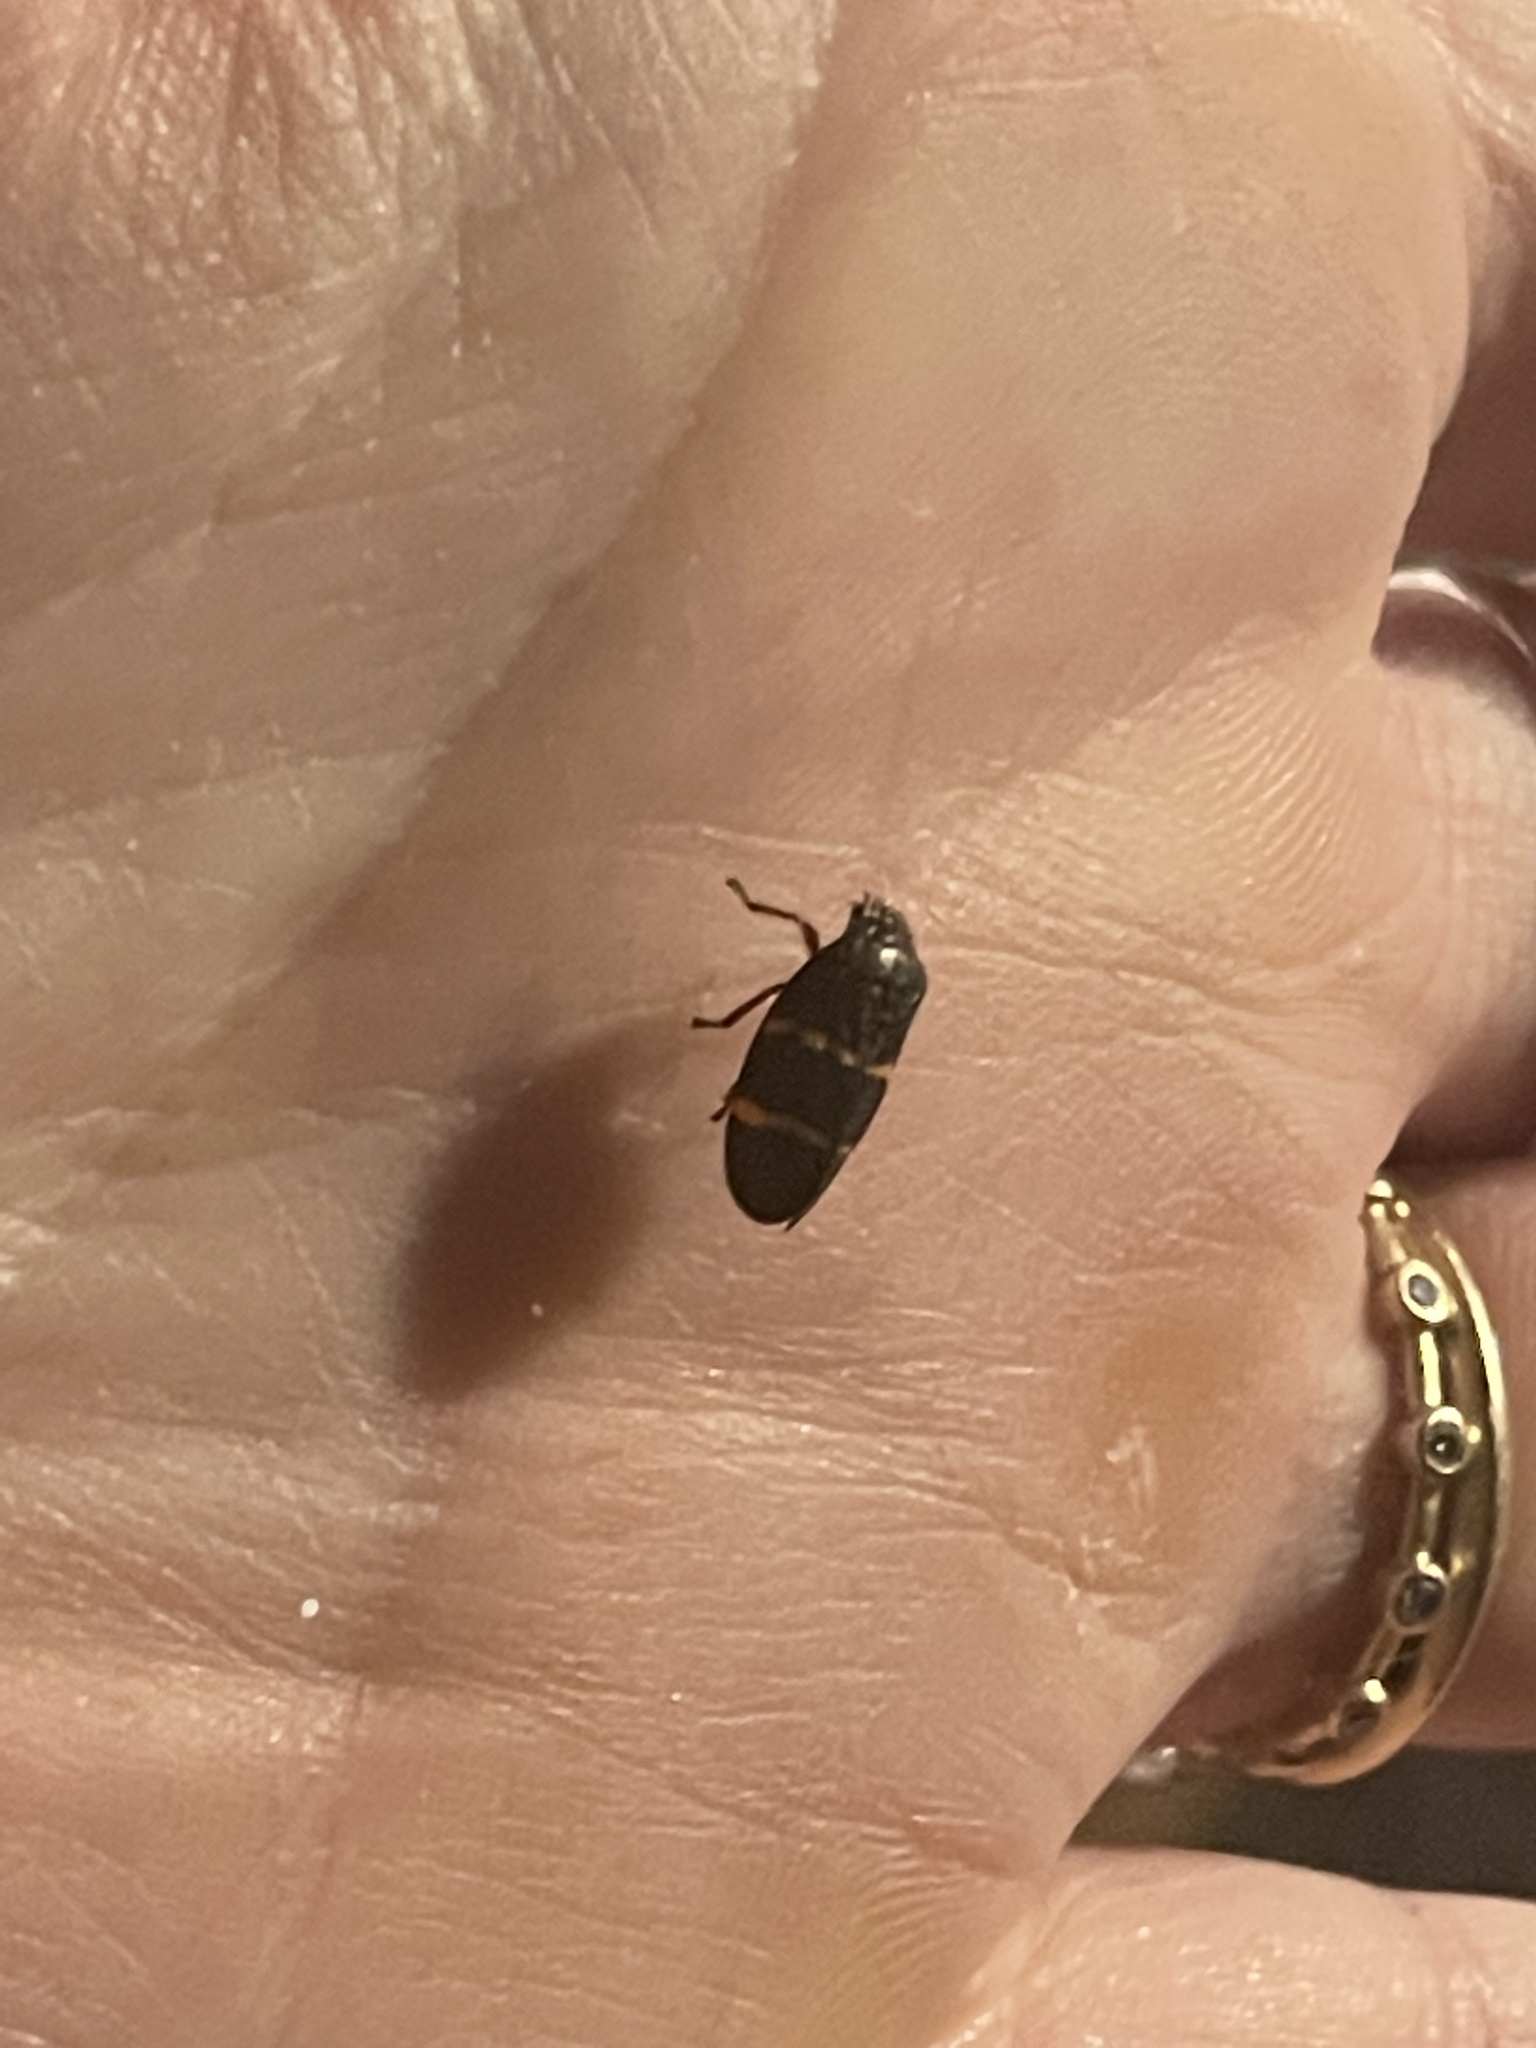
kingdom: Animalia
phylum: Arthropoda
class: Insecta
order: Hemiptera
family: Cercopidae
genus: Prosapia
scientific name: Prosapia bicincta
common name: Twolined spittlebug
